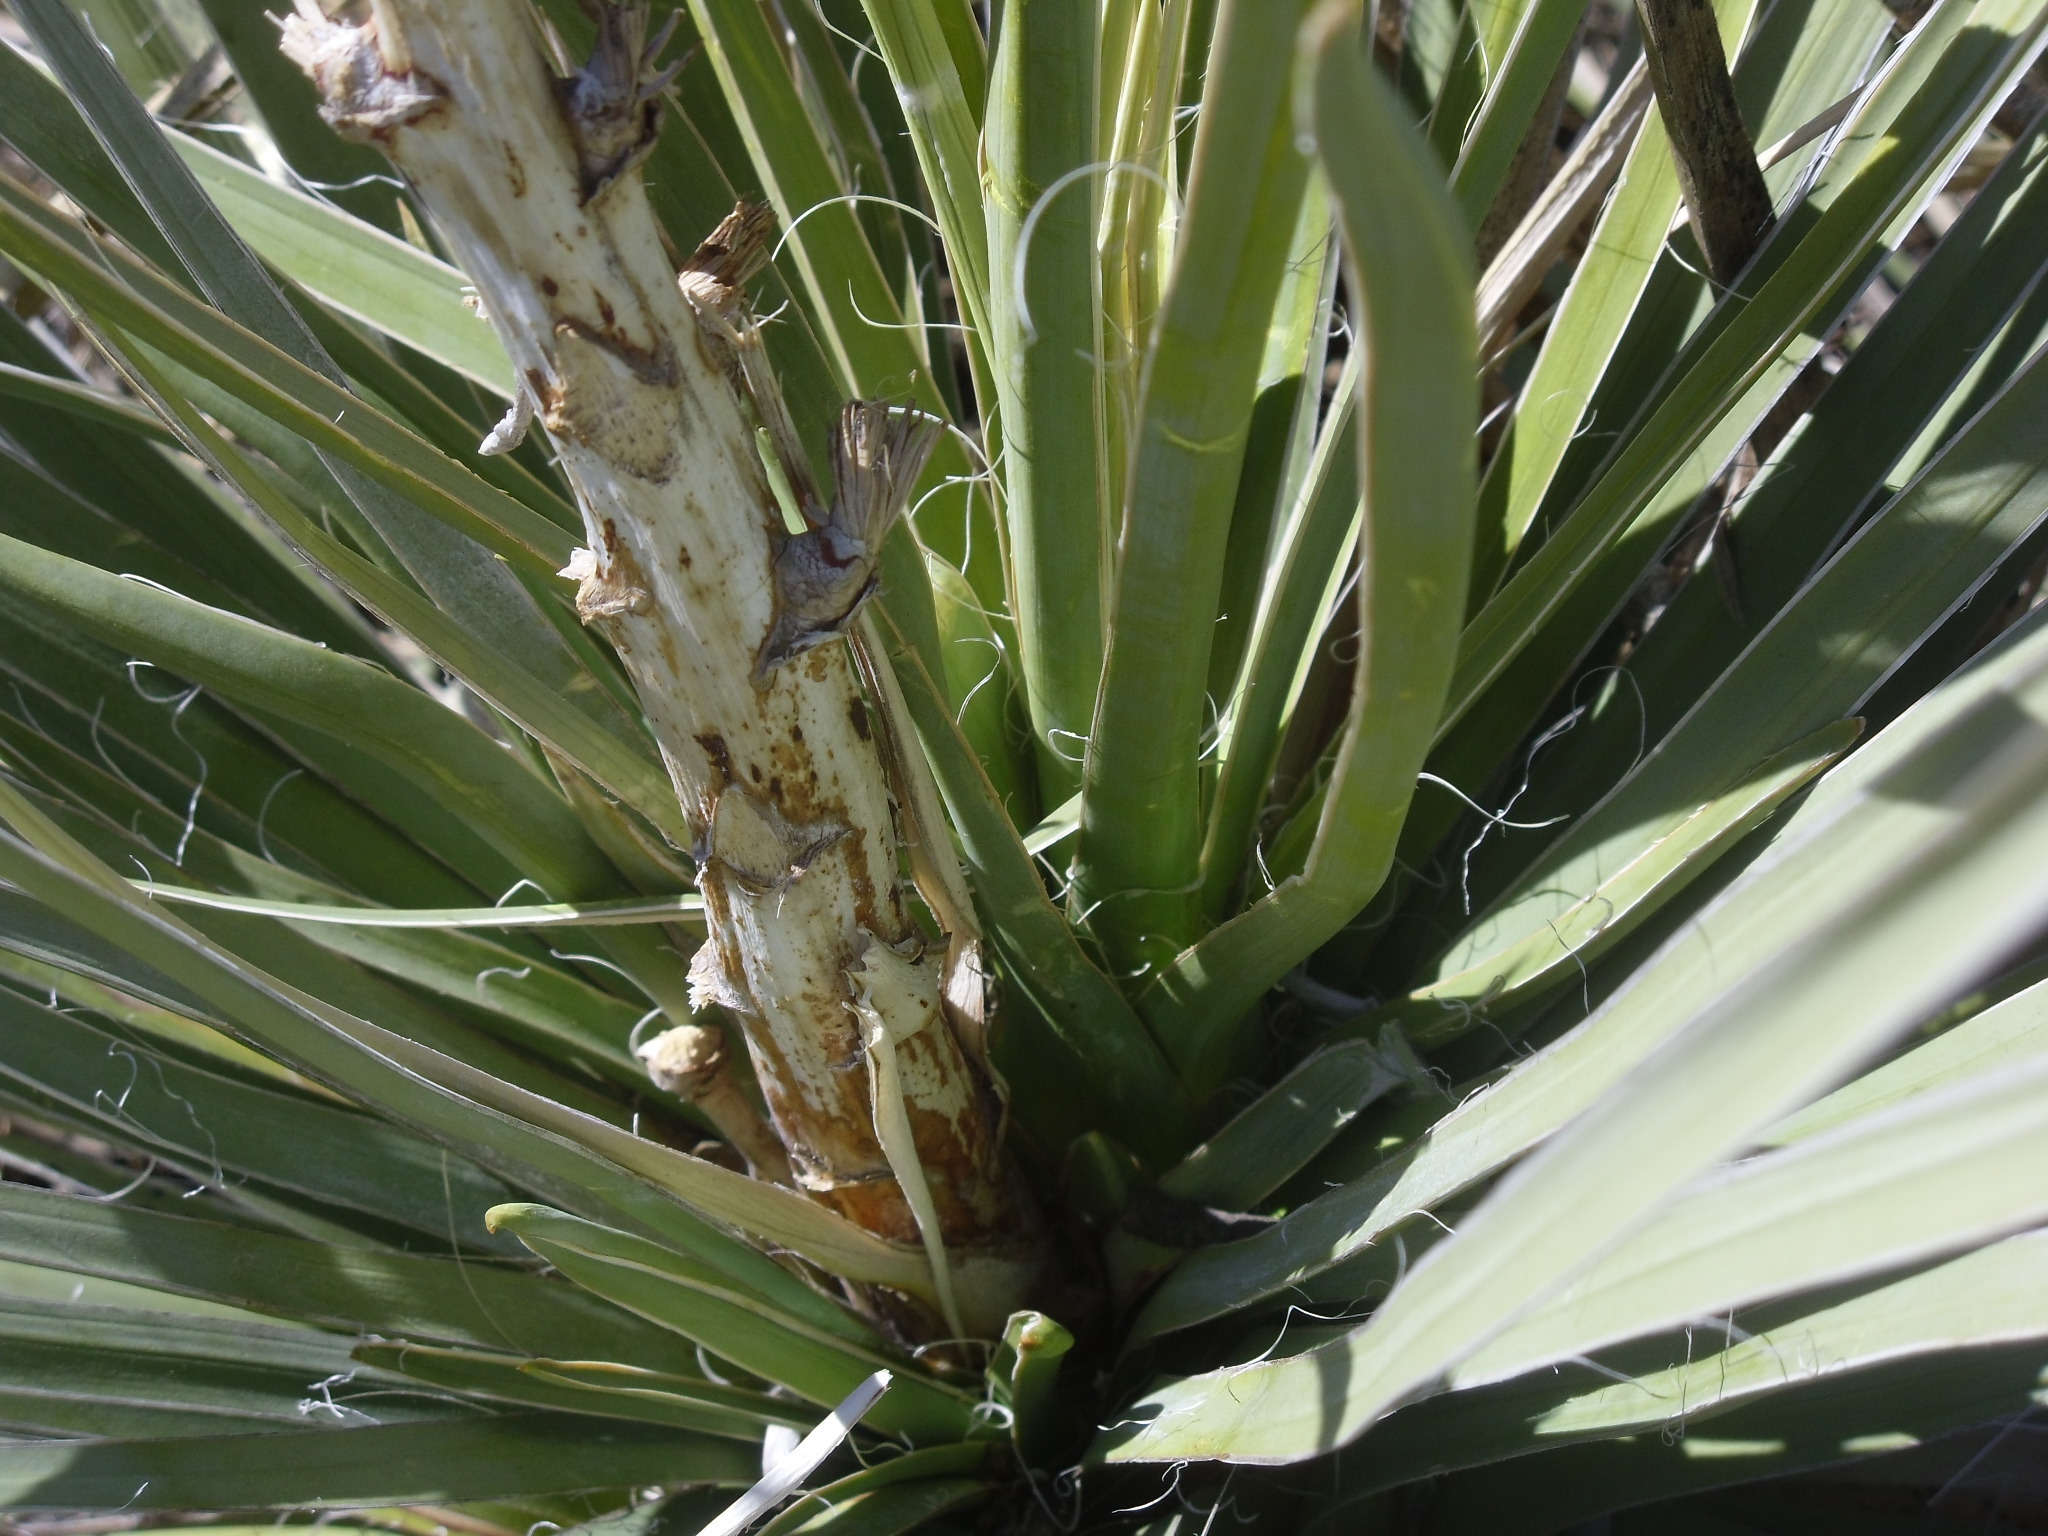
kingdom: Plantae
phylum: Tracheophyta
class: Liliopsida
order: Asparagales
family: Asparagaceae
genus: Yucca
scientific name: Yucca glauca
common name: Great plains yucca
